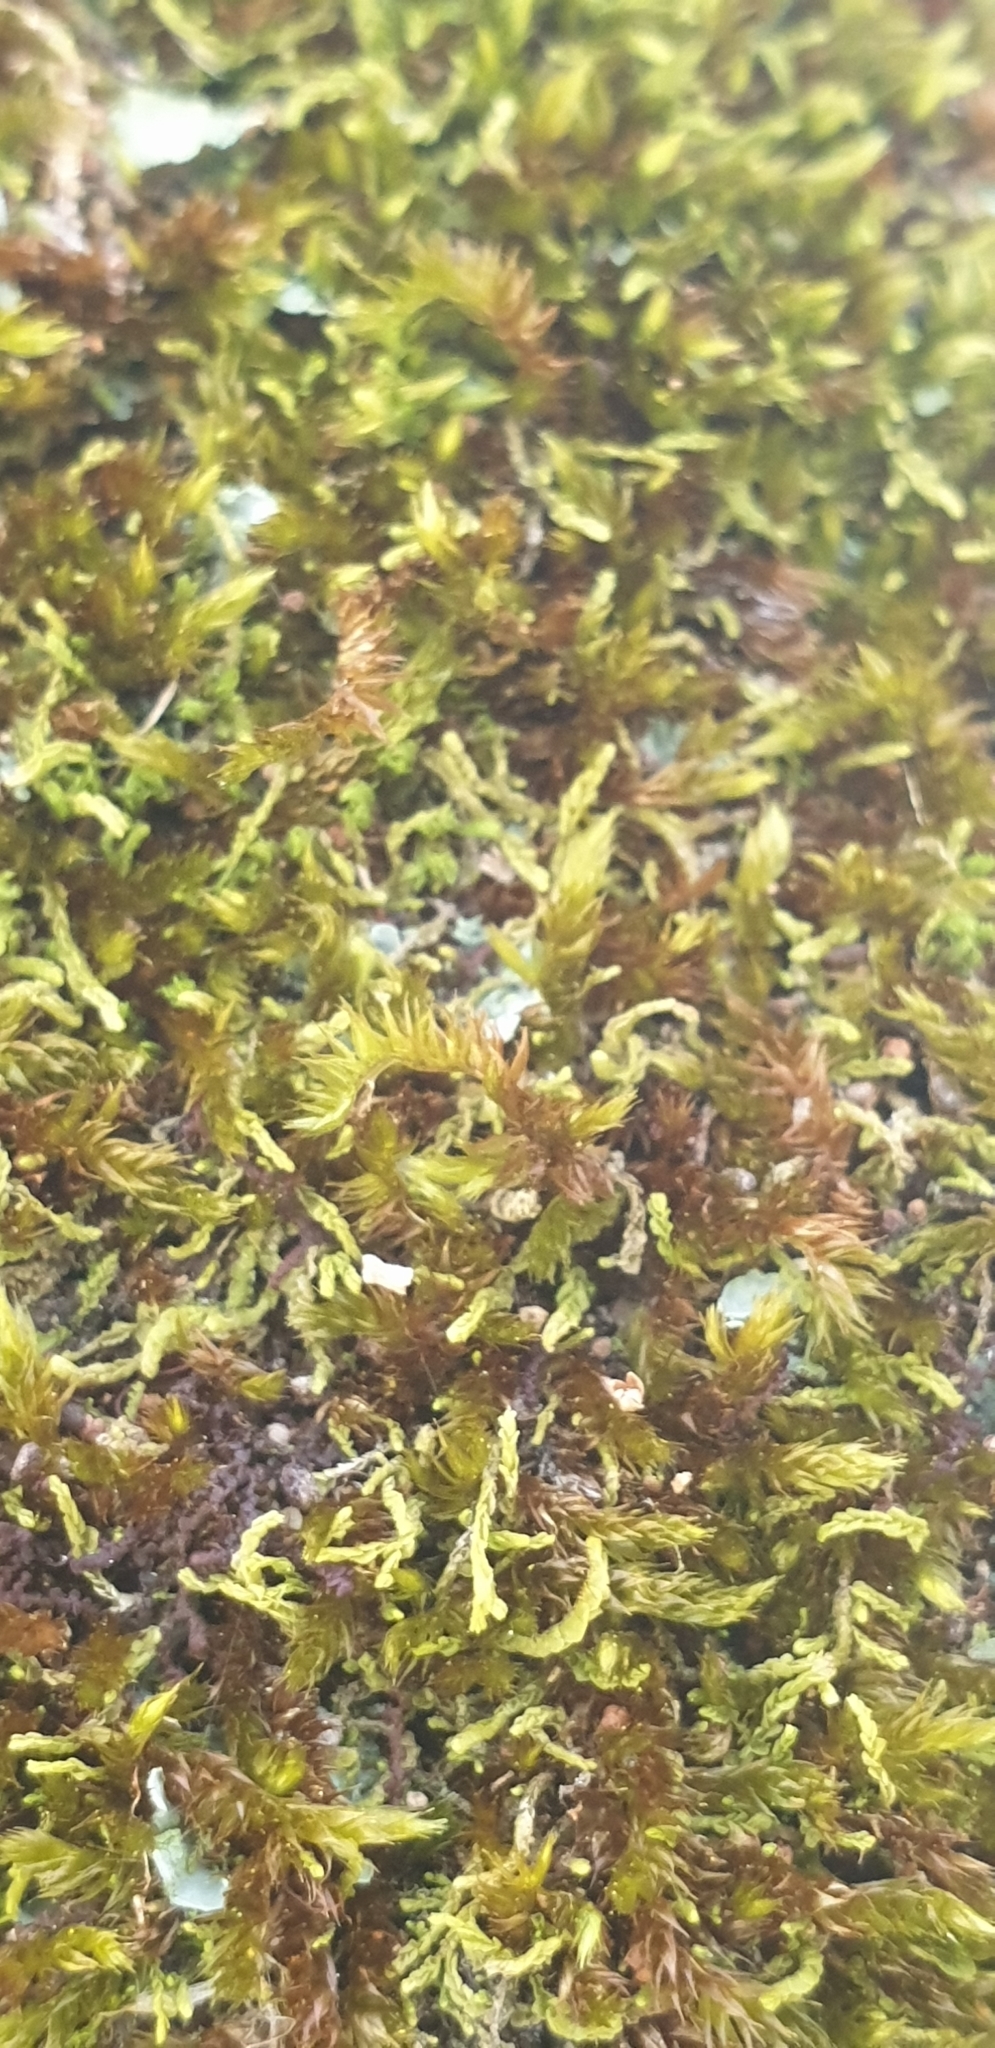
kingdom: Plantae
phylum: Bryophyta
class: Bryopsida
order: Hypnales
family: Sematophyllaceae
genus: Sematophyllum
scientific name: Sematophyllum homomallum
